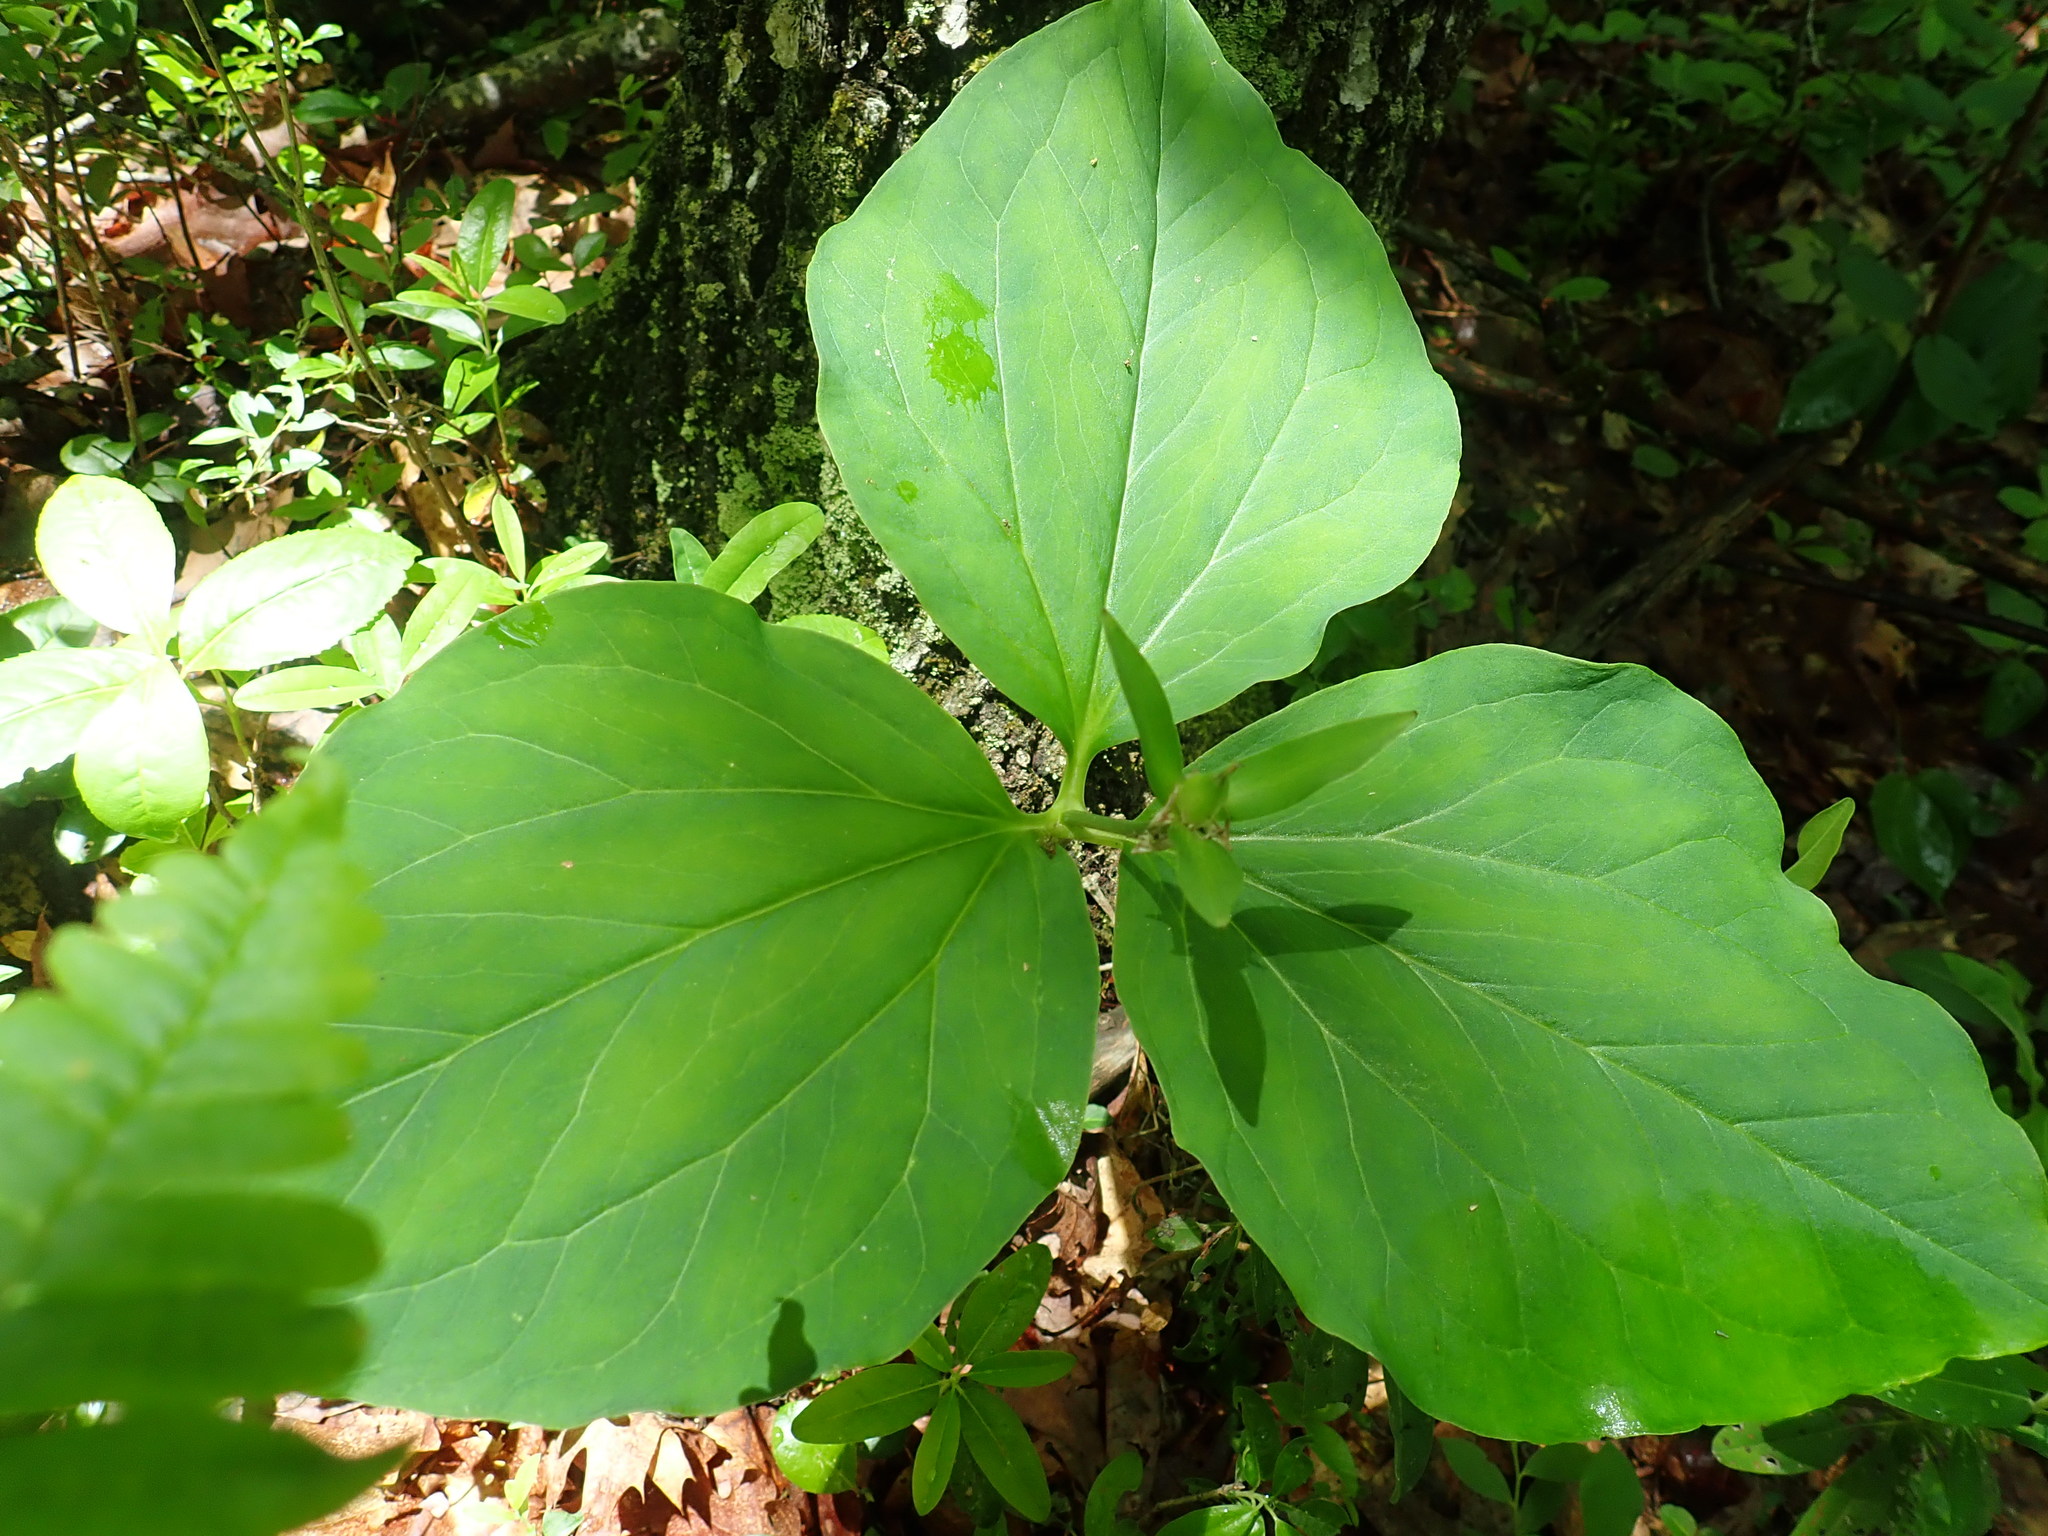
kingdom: Plantae
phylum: Tracheophyta
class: Liliopsida
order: Liliales
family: Melanthiaceae
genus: Trillium
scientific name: Trillium undulatum
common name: Paint trillium
